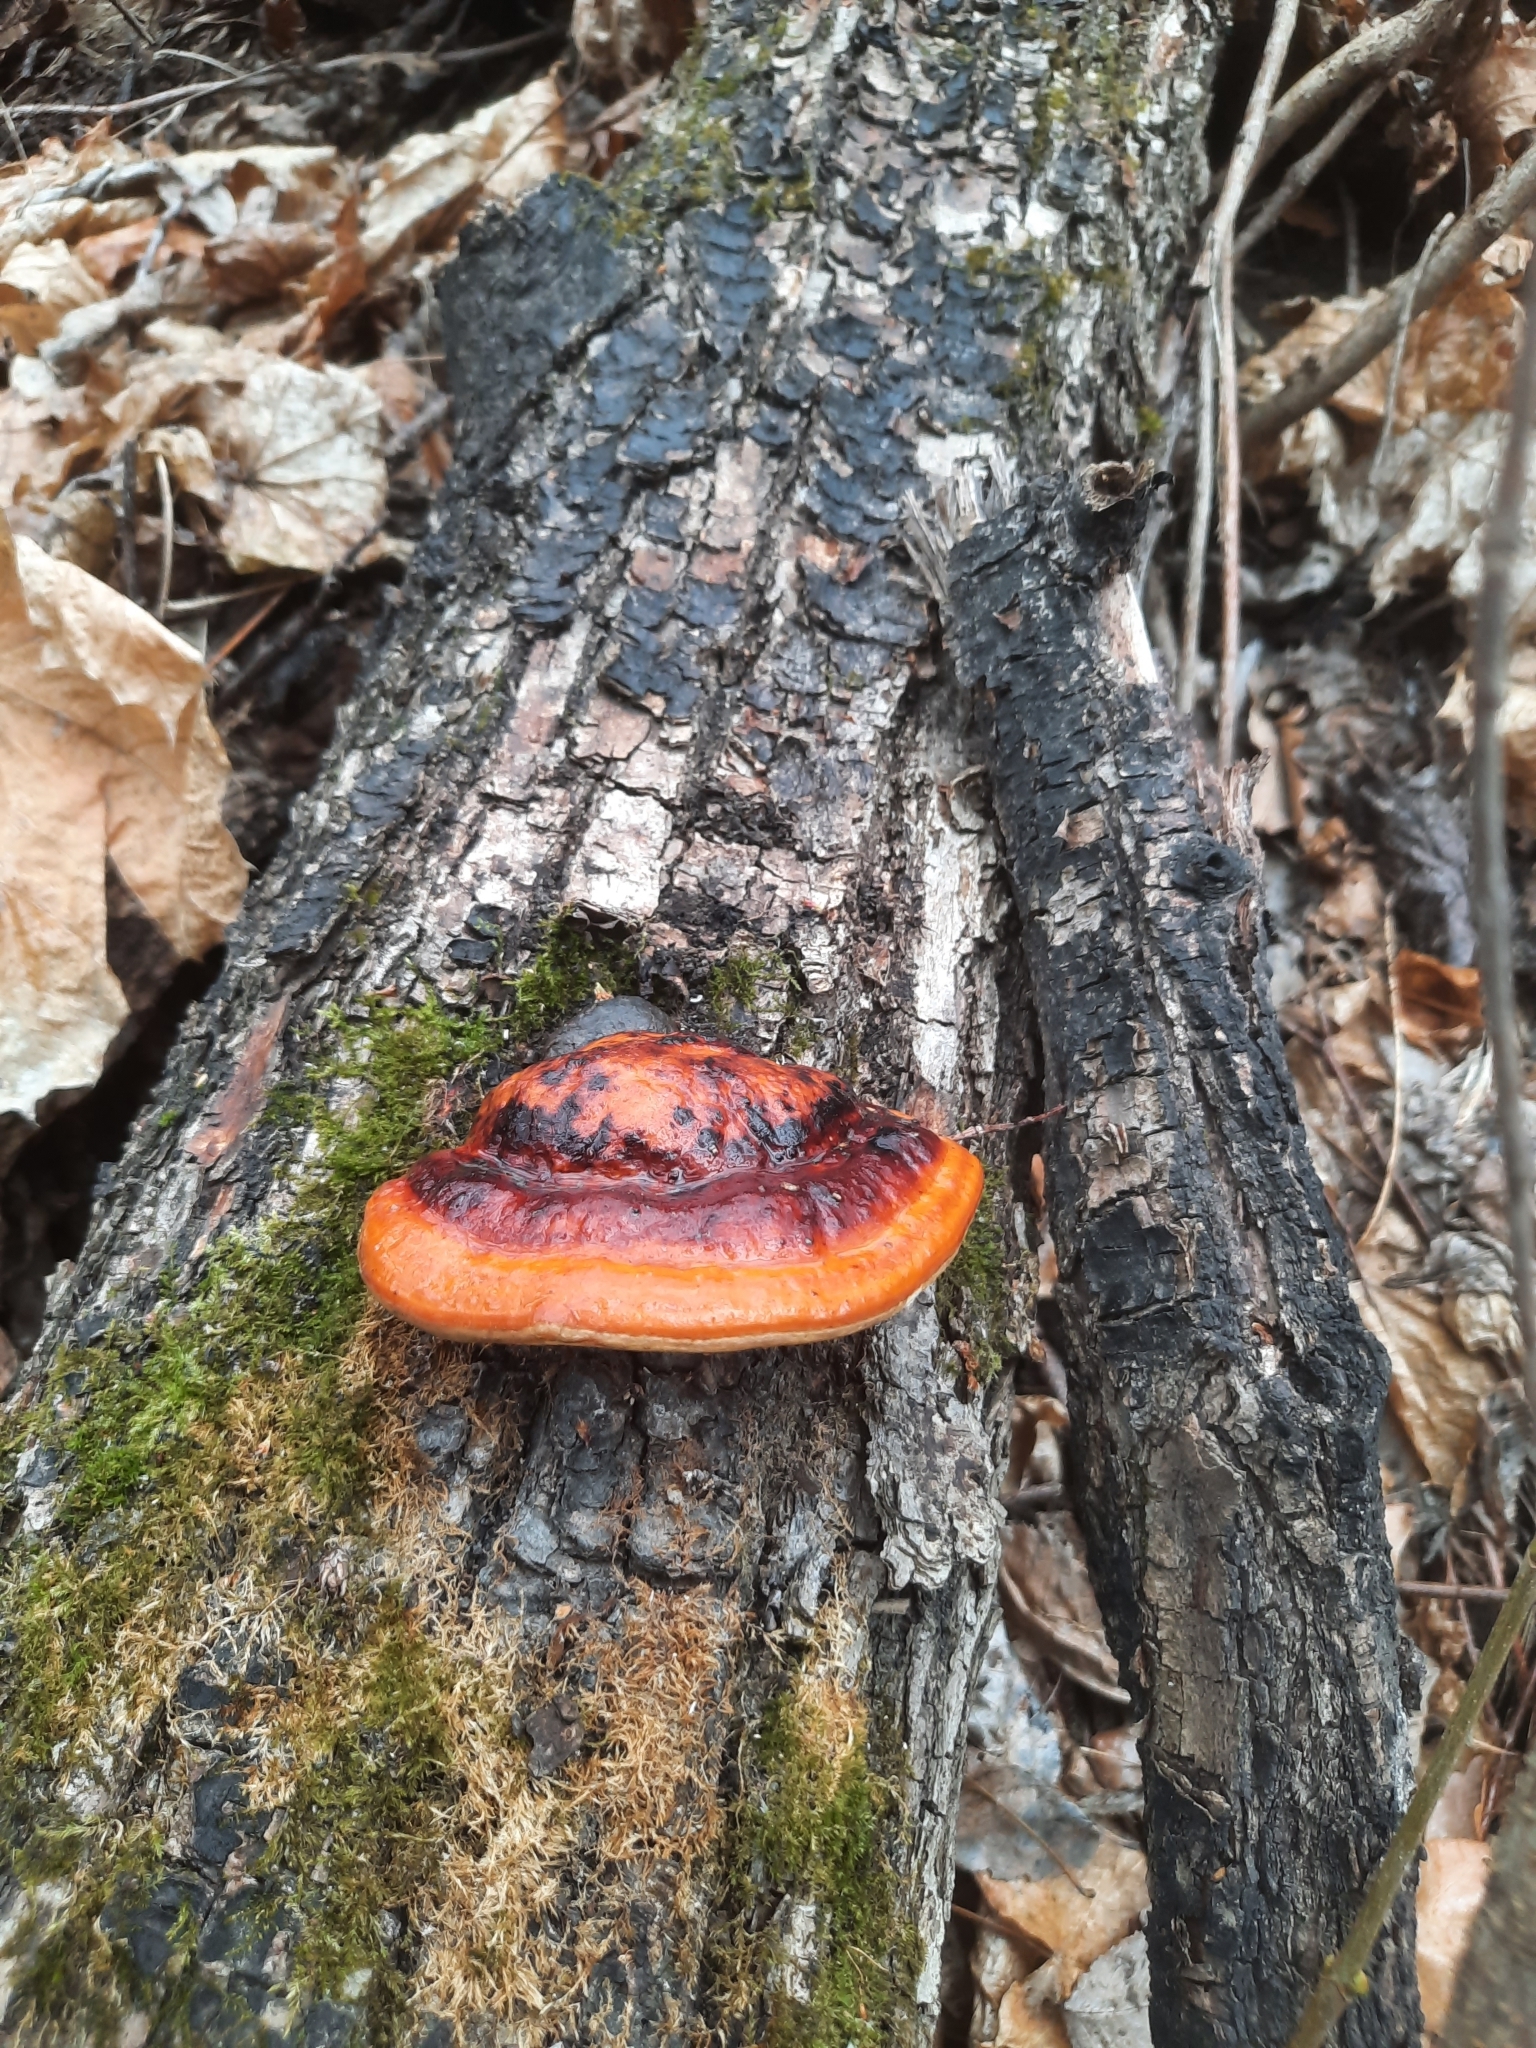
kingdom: Fungi
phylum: Basidiomycota
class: Agaricomycetes
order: Polyporales
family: Fomitopsidaceae
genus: Fomitopsis
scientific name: Fomitopsis pinicola
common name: Red-belted bracket
